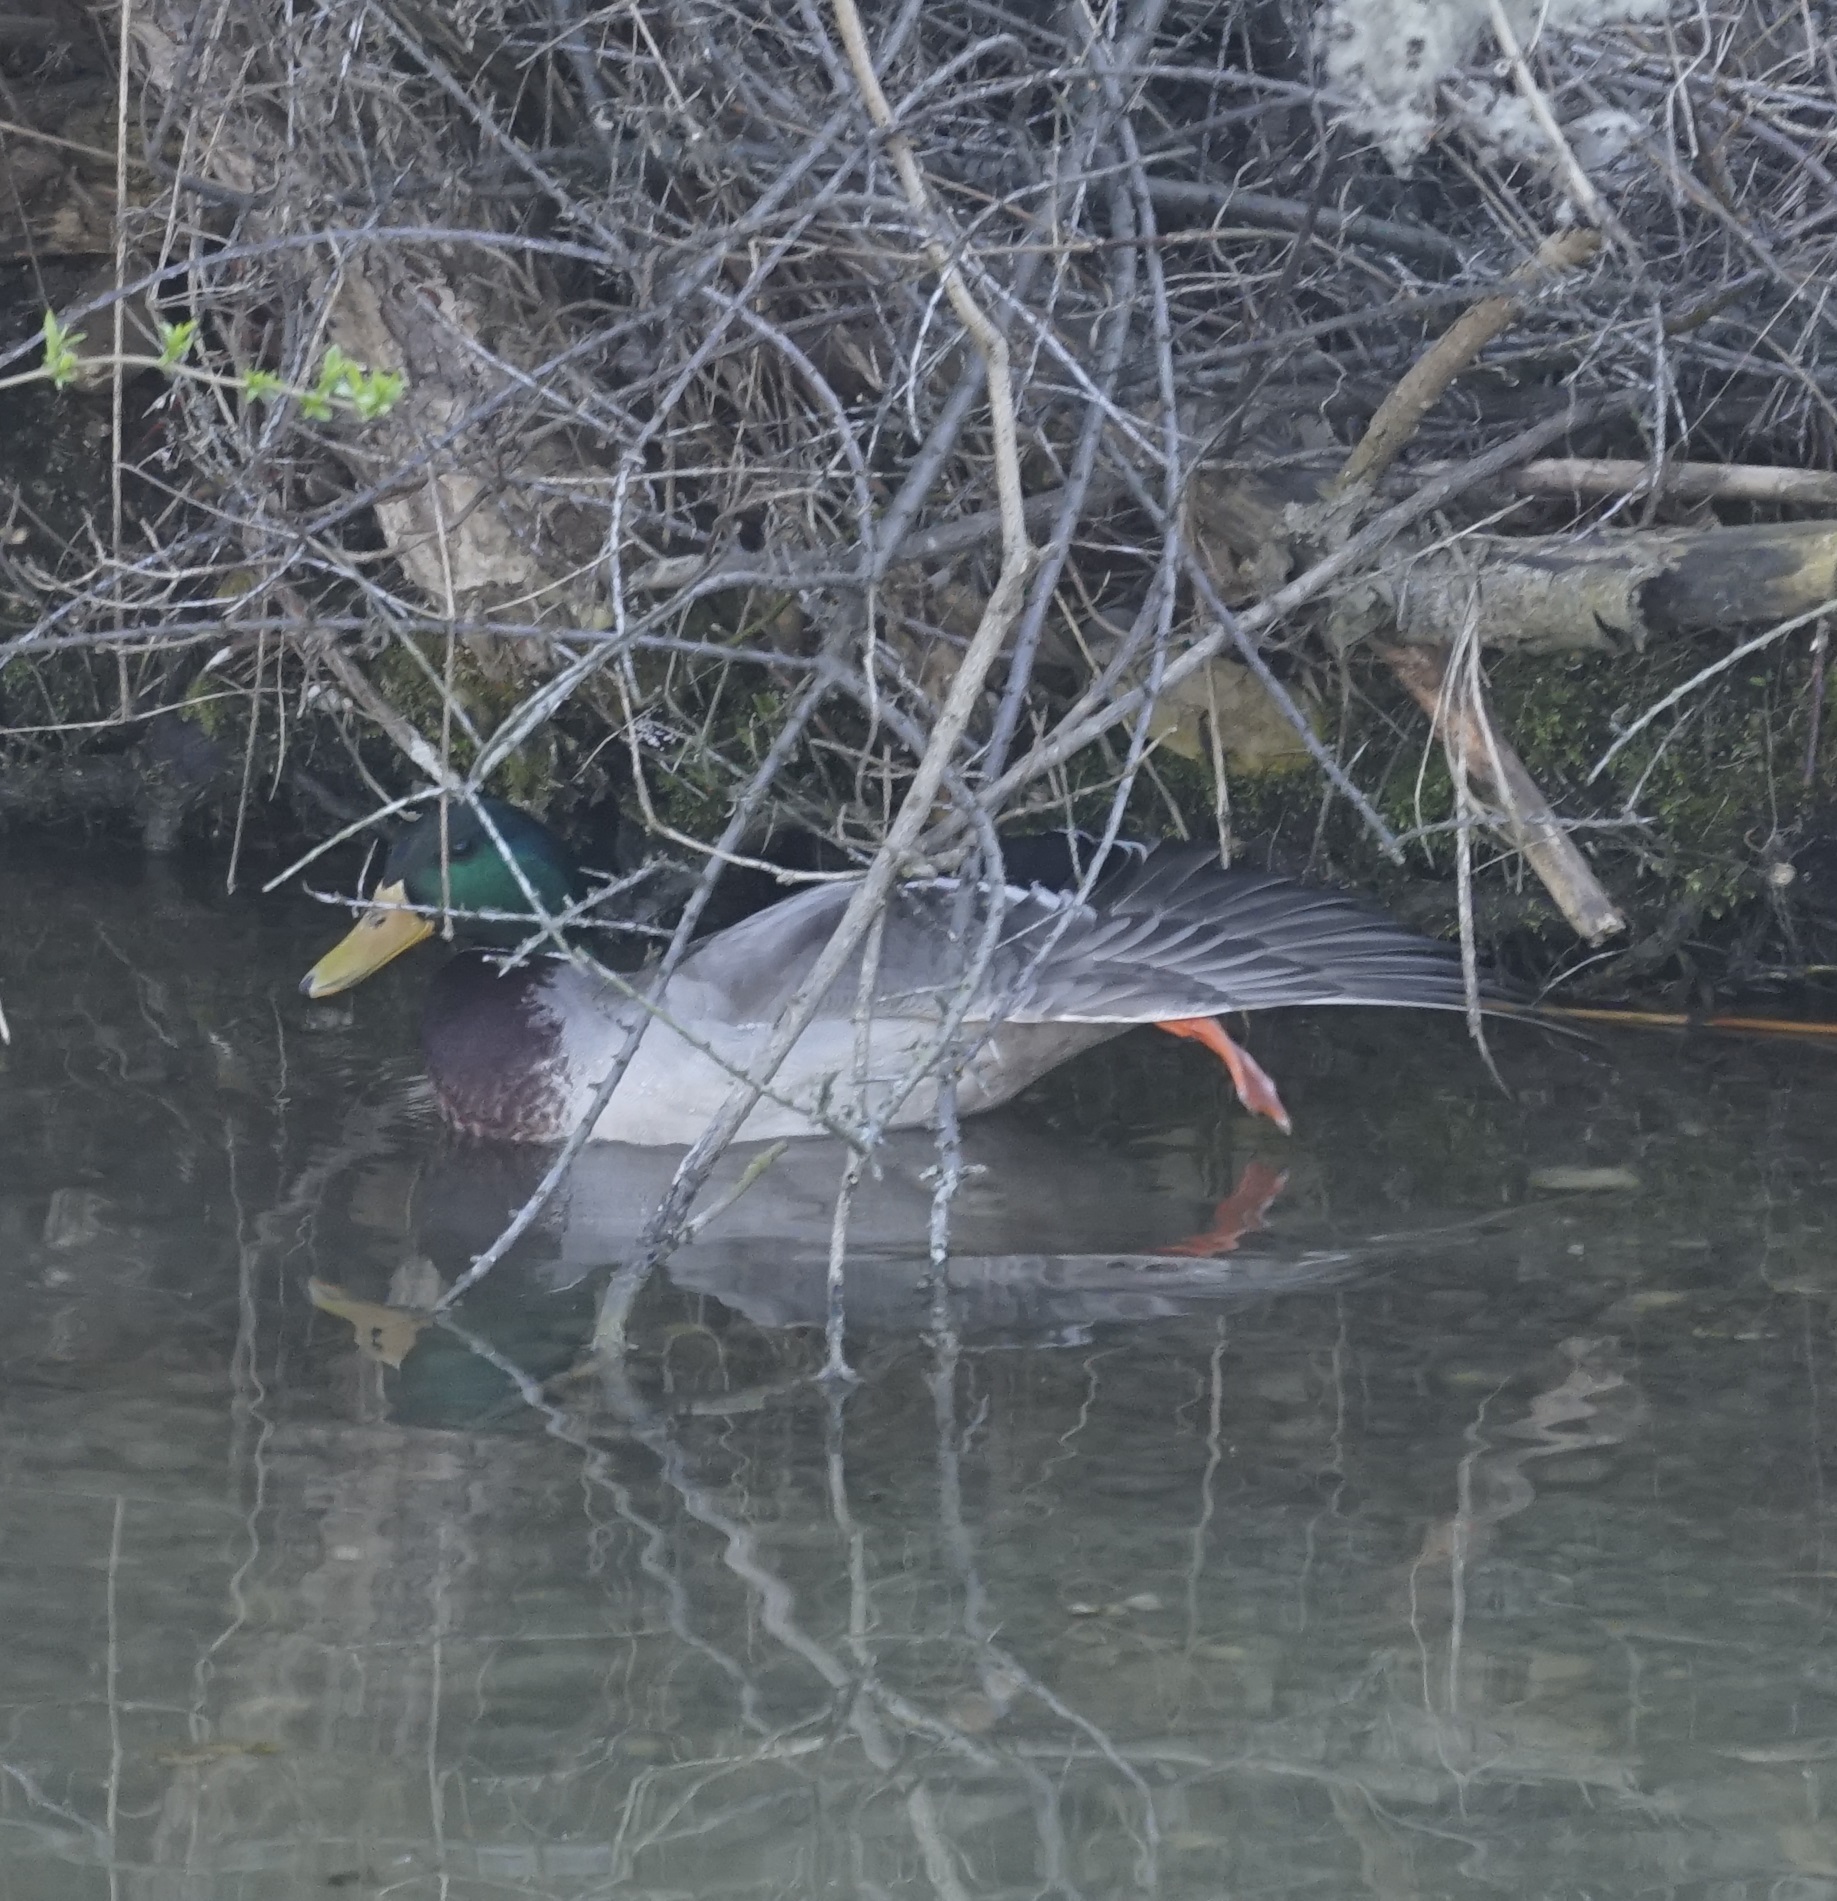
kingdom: Animalia
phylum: Chordata
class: Aves
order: Anseriformes
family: Anatidae
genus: Anas
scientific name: Anas platyrhynchos
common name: Mallard
